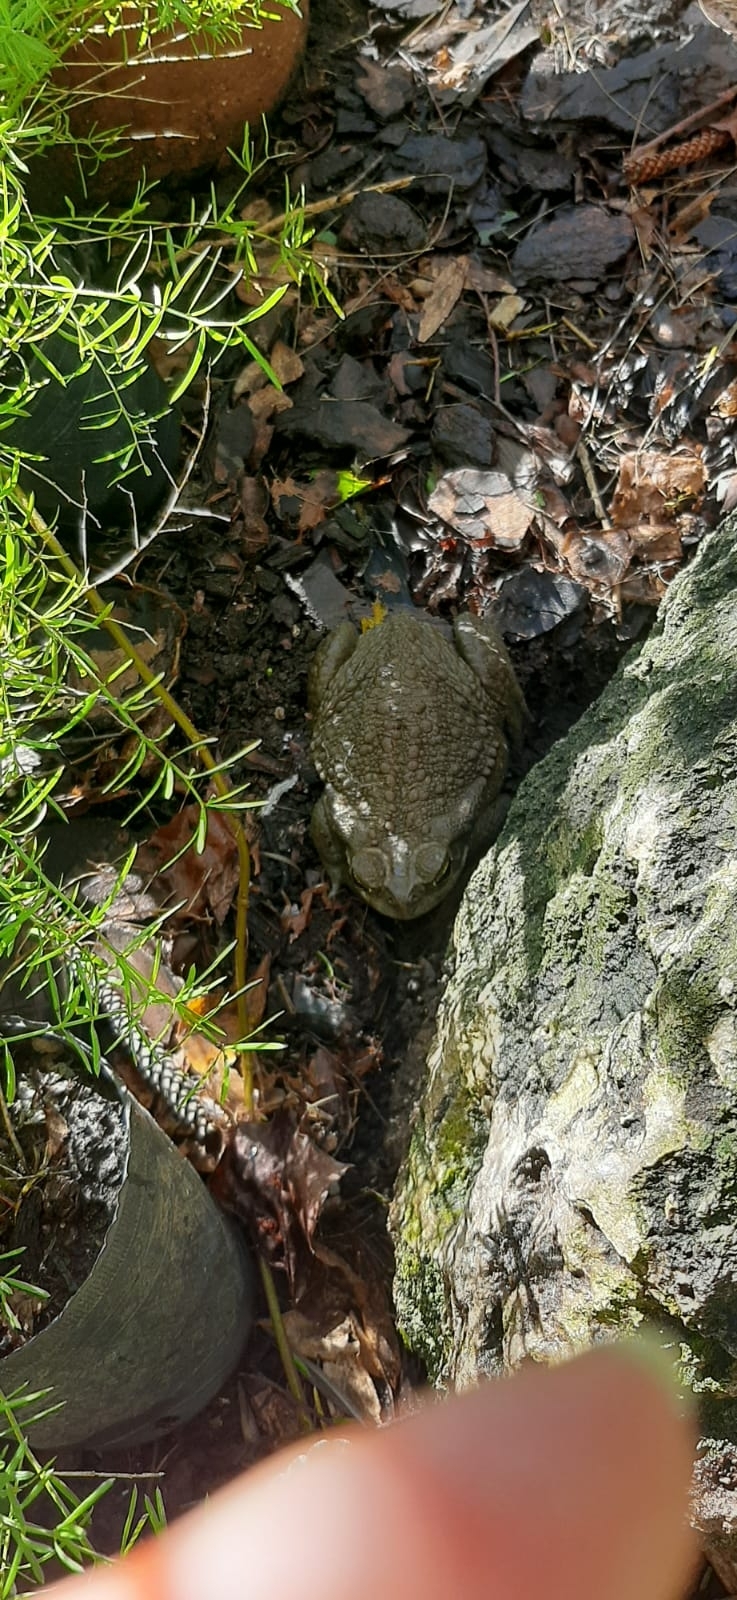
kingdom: Animalia
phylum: Chordata
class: Amphibia
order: Anura
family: Bufonidae
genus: Rhinella
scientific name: Rhinella arenarum
